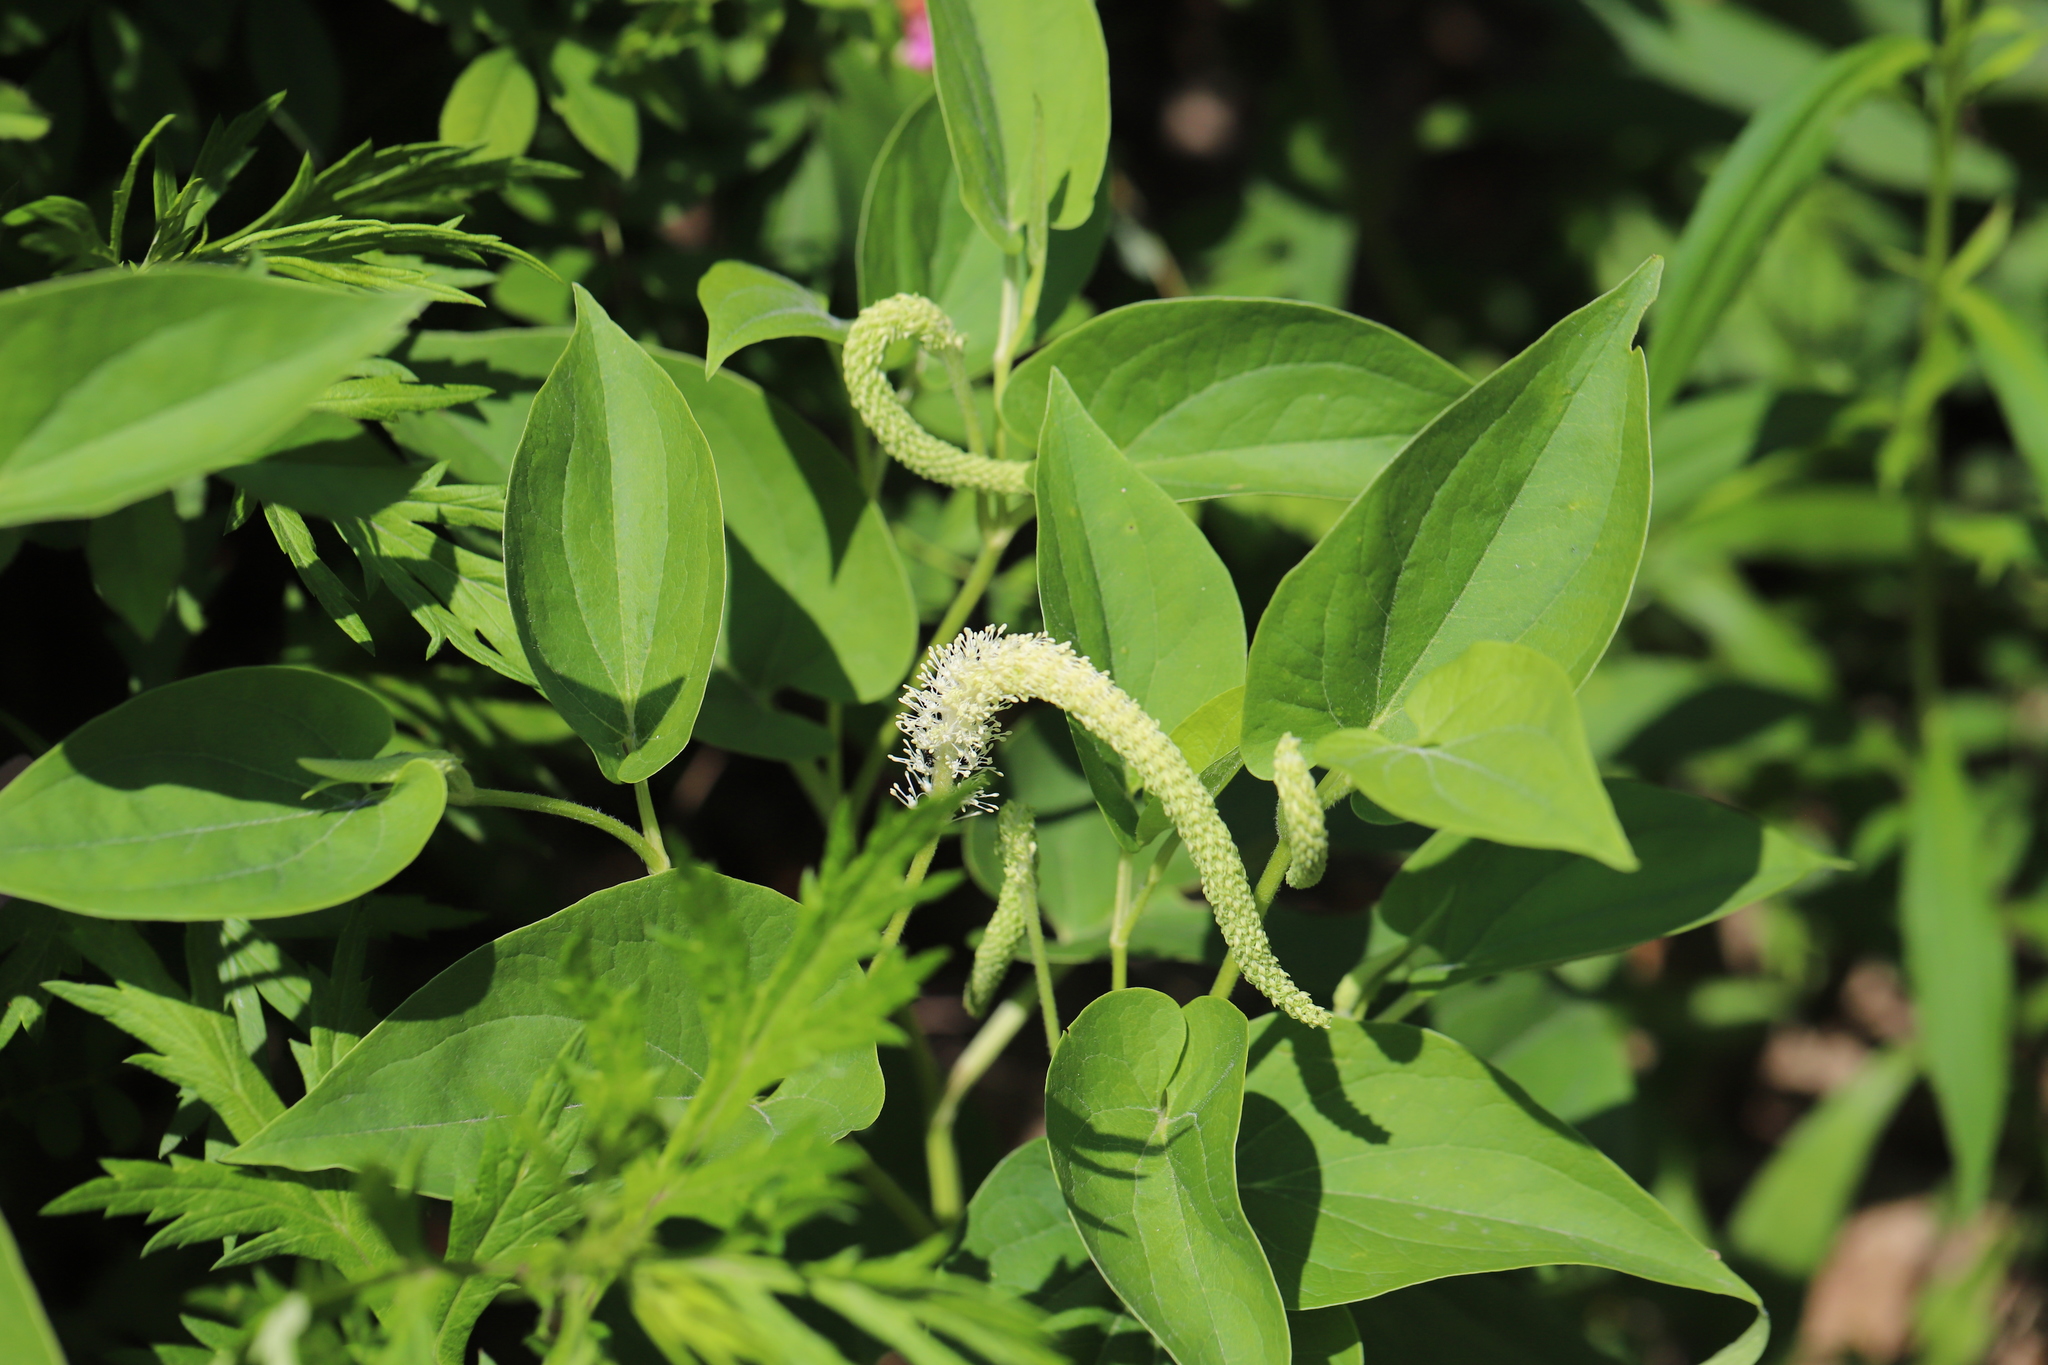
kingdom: Plantae
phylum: Tracheophyta
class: Magnoliopsida
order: Piperales
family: Saururaceae
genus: Saururus
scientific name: Saururus cernuus
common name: Lizard's-tail
